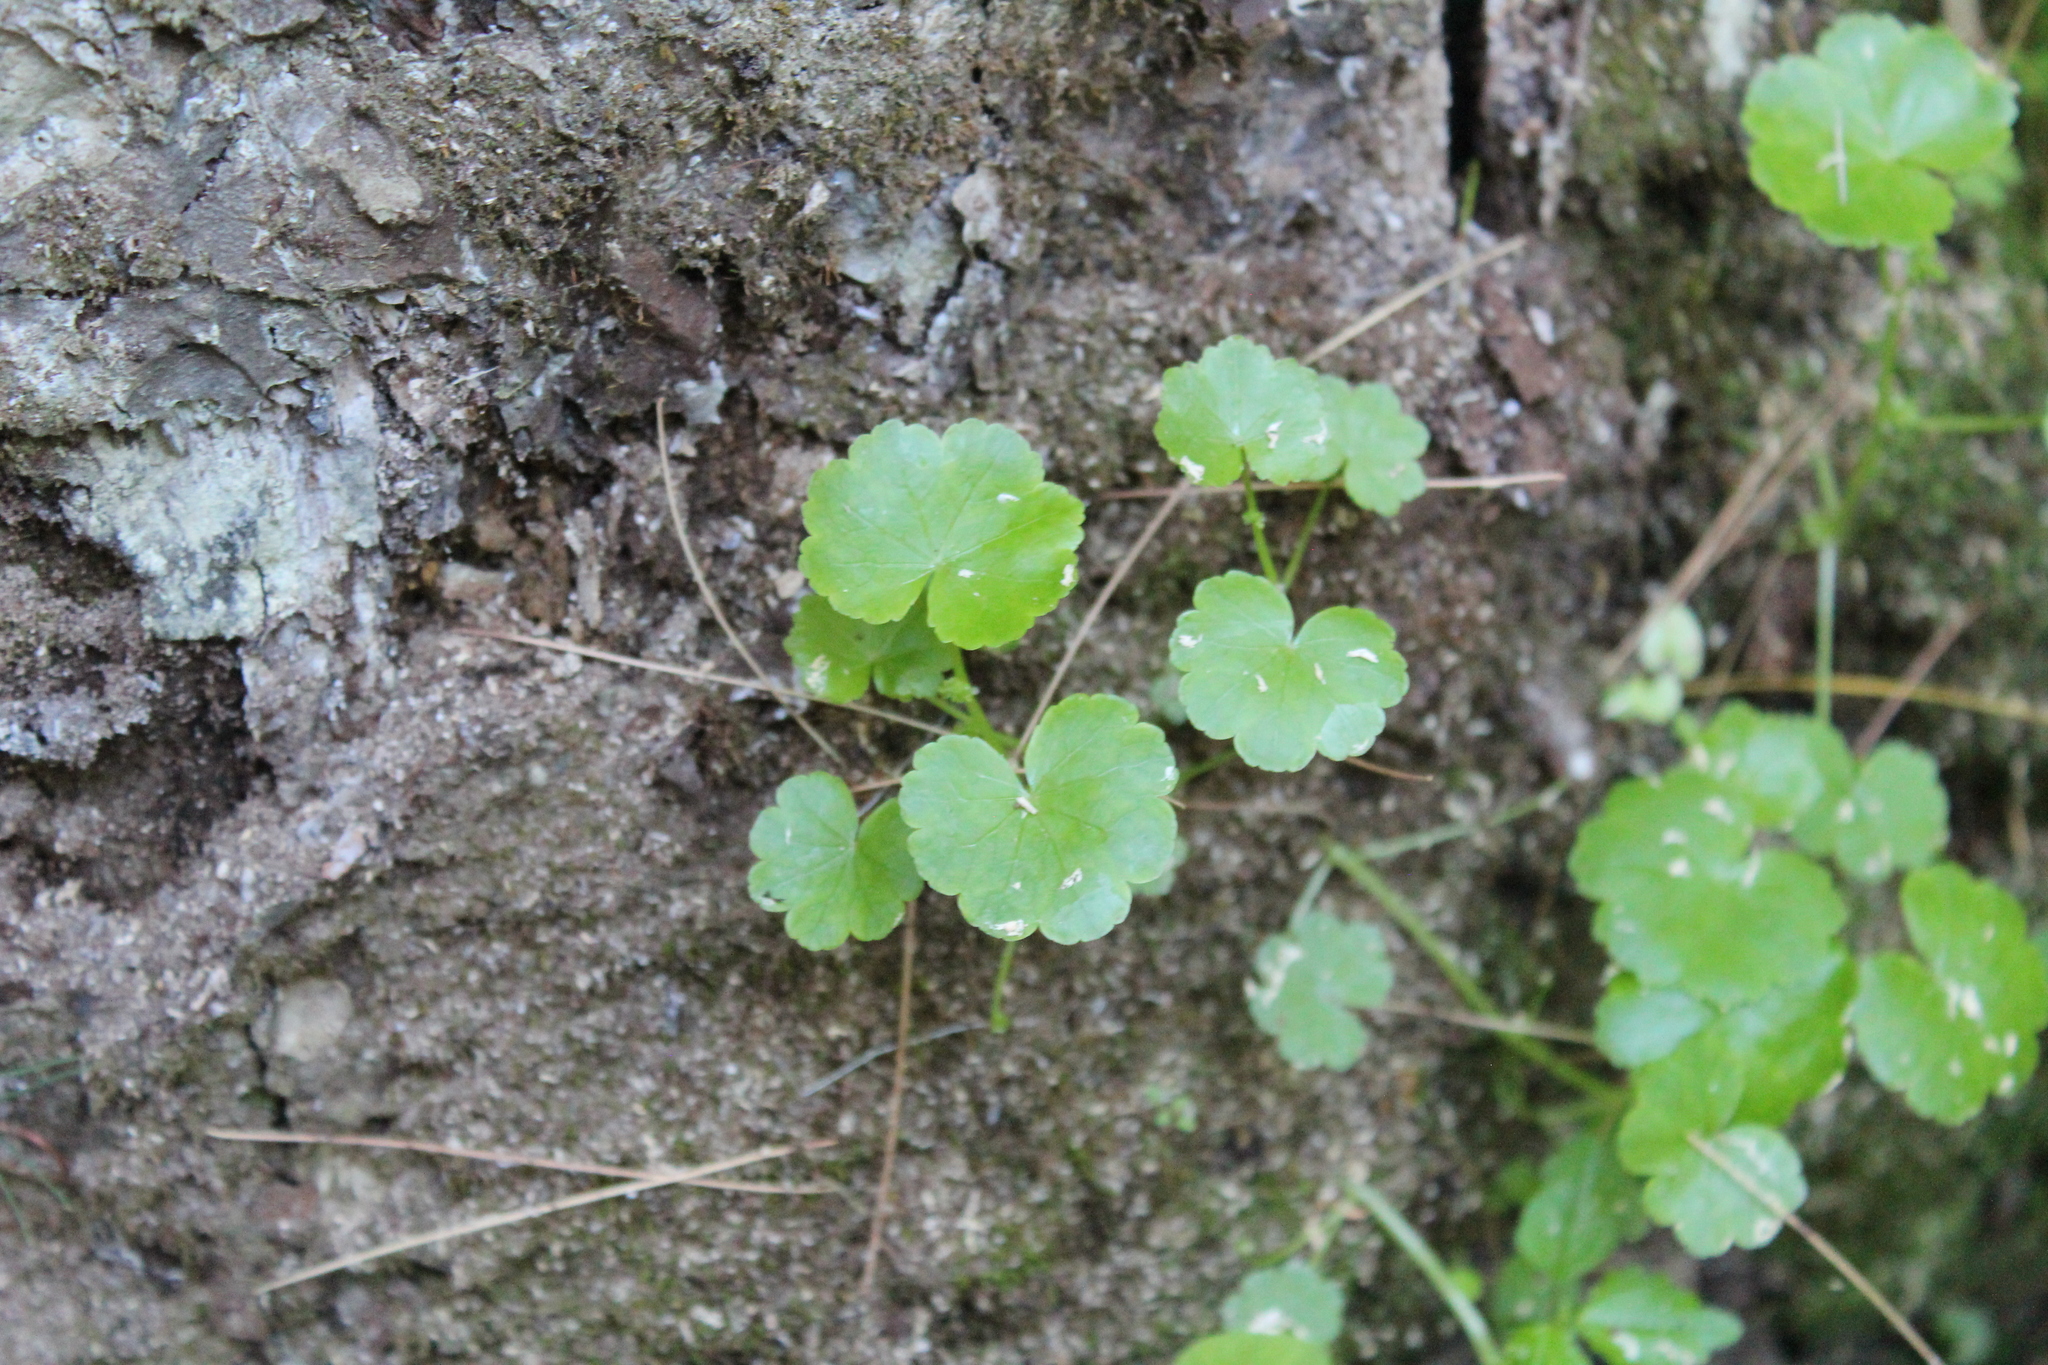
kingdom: Plantae
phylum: Tracheophyta
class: Magnoliopsida
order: Apiales
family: Araliaceae
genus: Hydrocotyle
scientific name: Hydrocotyle americana
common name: American water-pennywort
